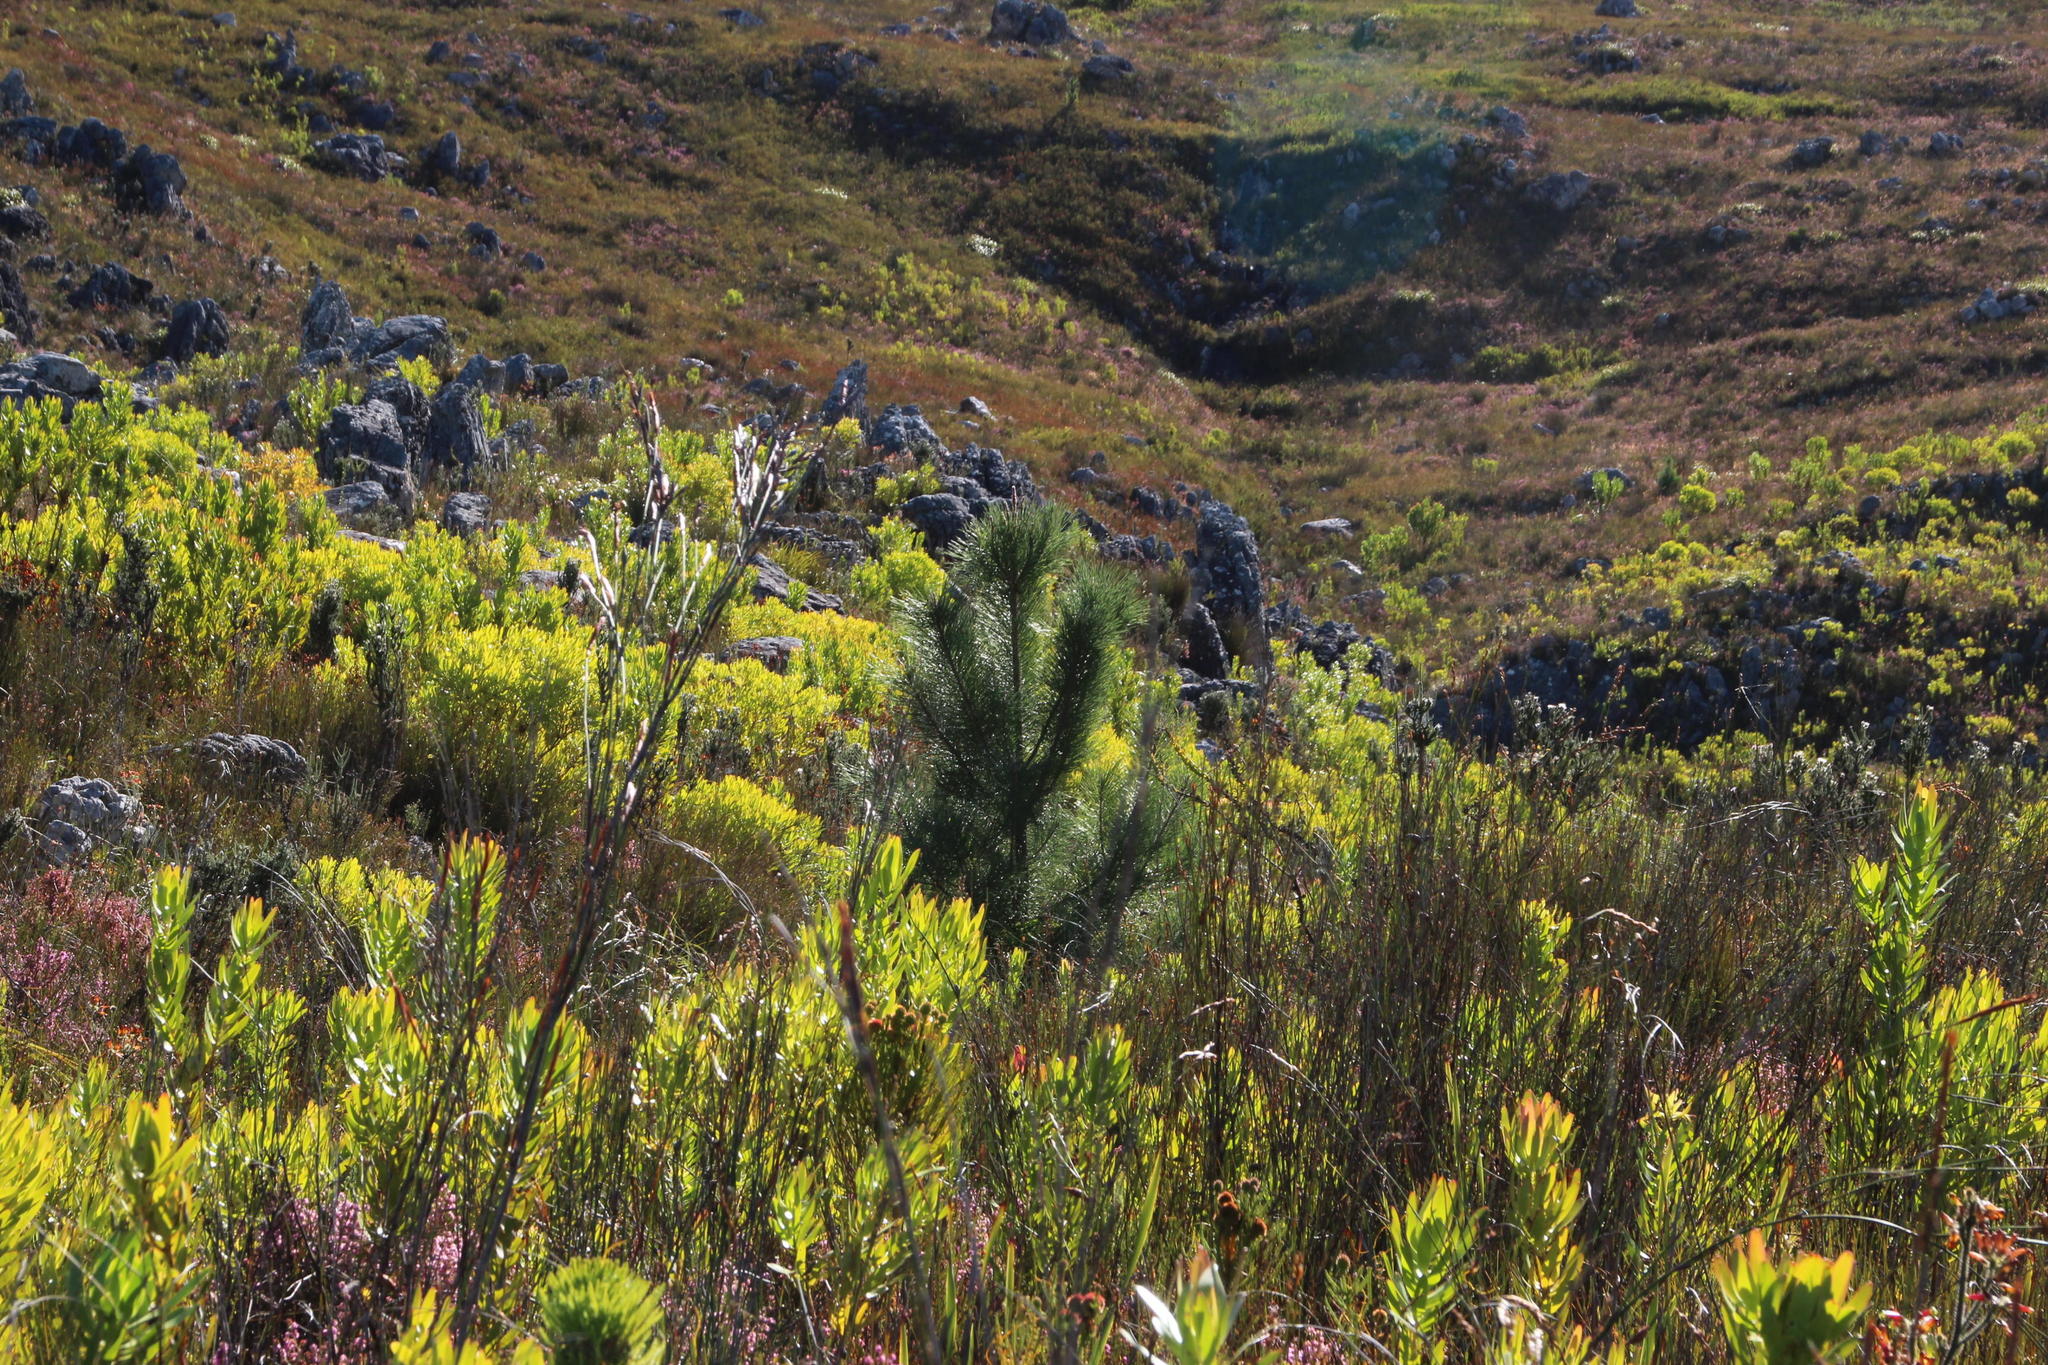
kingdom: Plantae
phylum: Tracheophyta
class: Pinopsida
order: Pinales
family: Pinaceae
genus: Pinus
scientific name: Pinus pinaster
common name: Maritime pine
